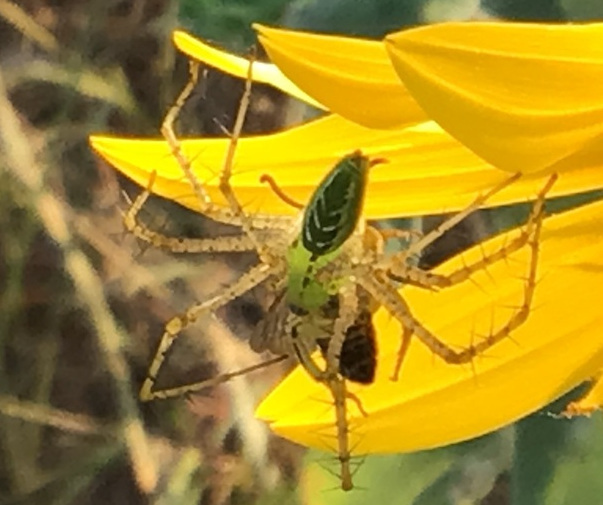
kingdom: Animalia
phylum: Arthropoda
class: Arachnida
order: Araneae
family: Oxyopidae
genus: Peucetia
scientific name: Peucetia viridans
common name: Lynx spiders
